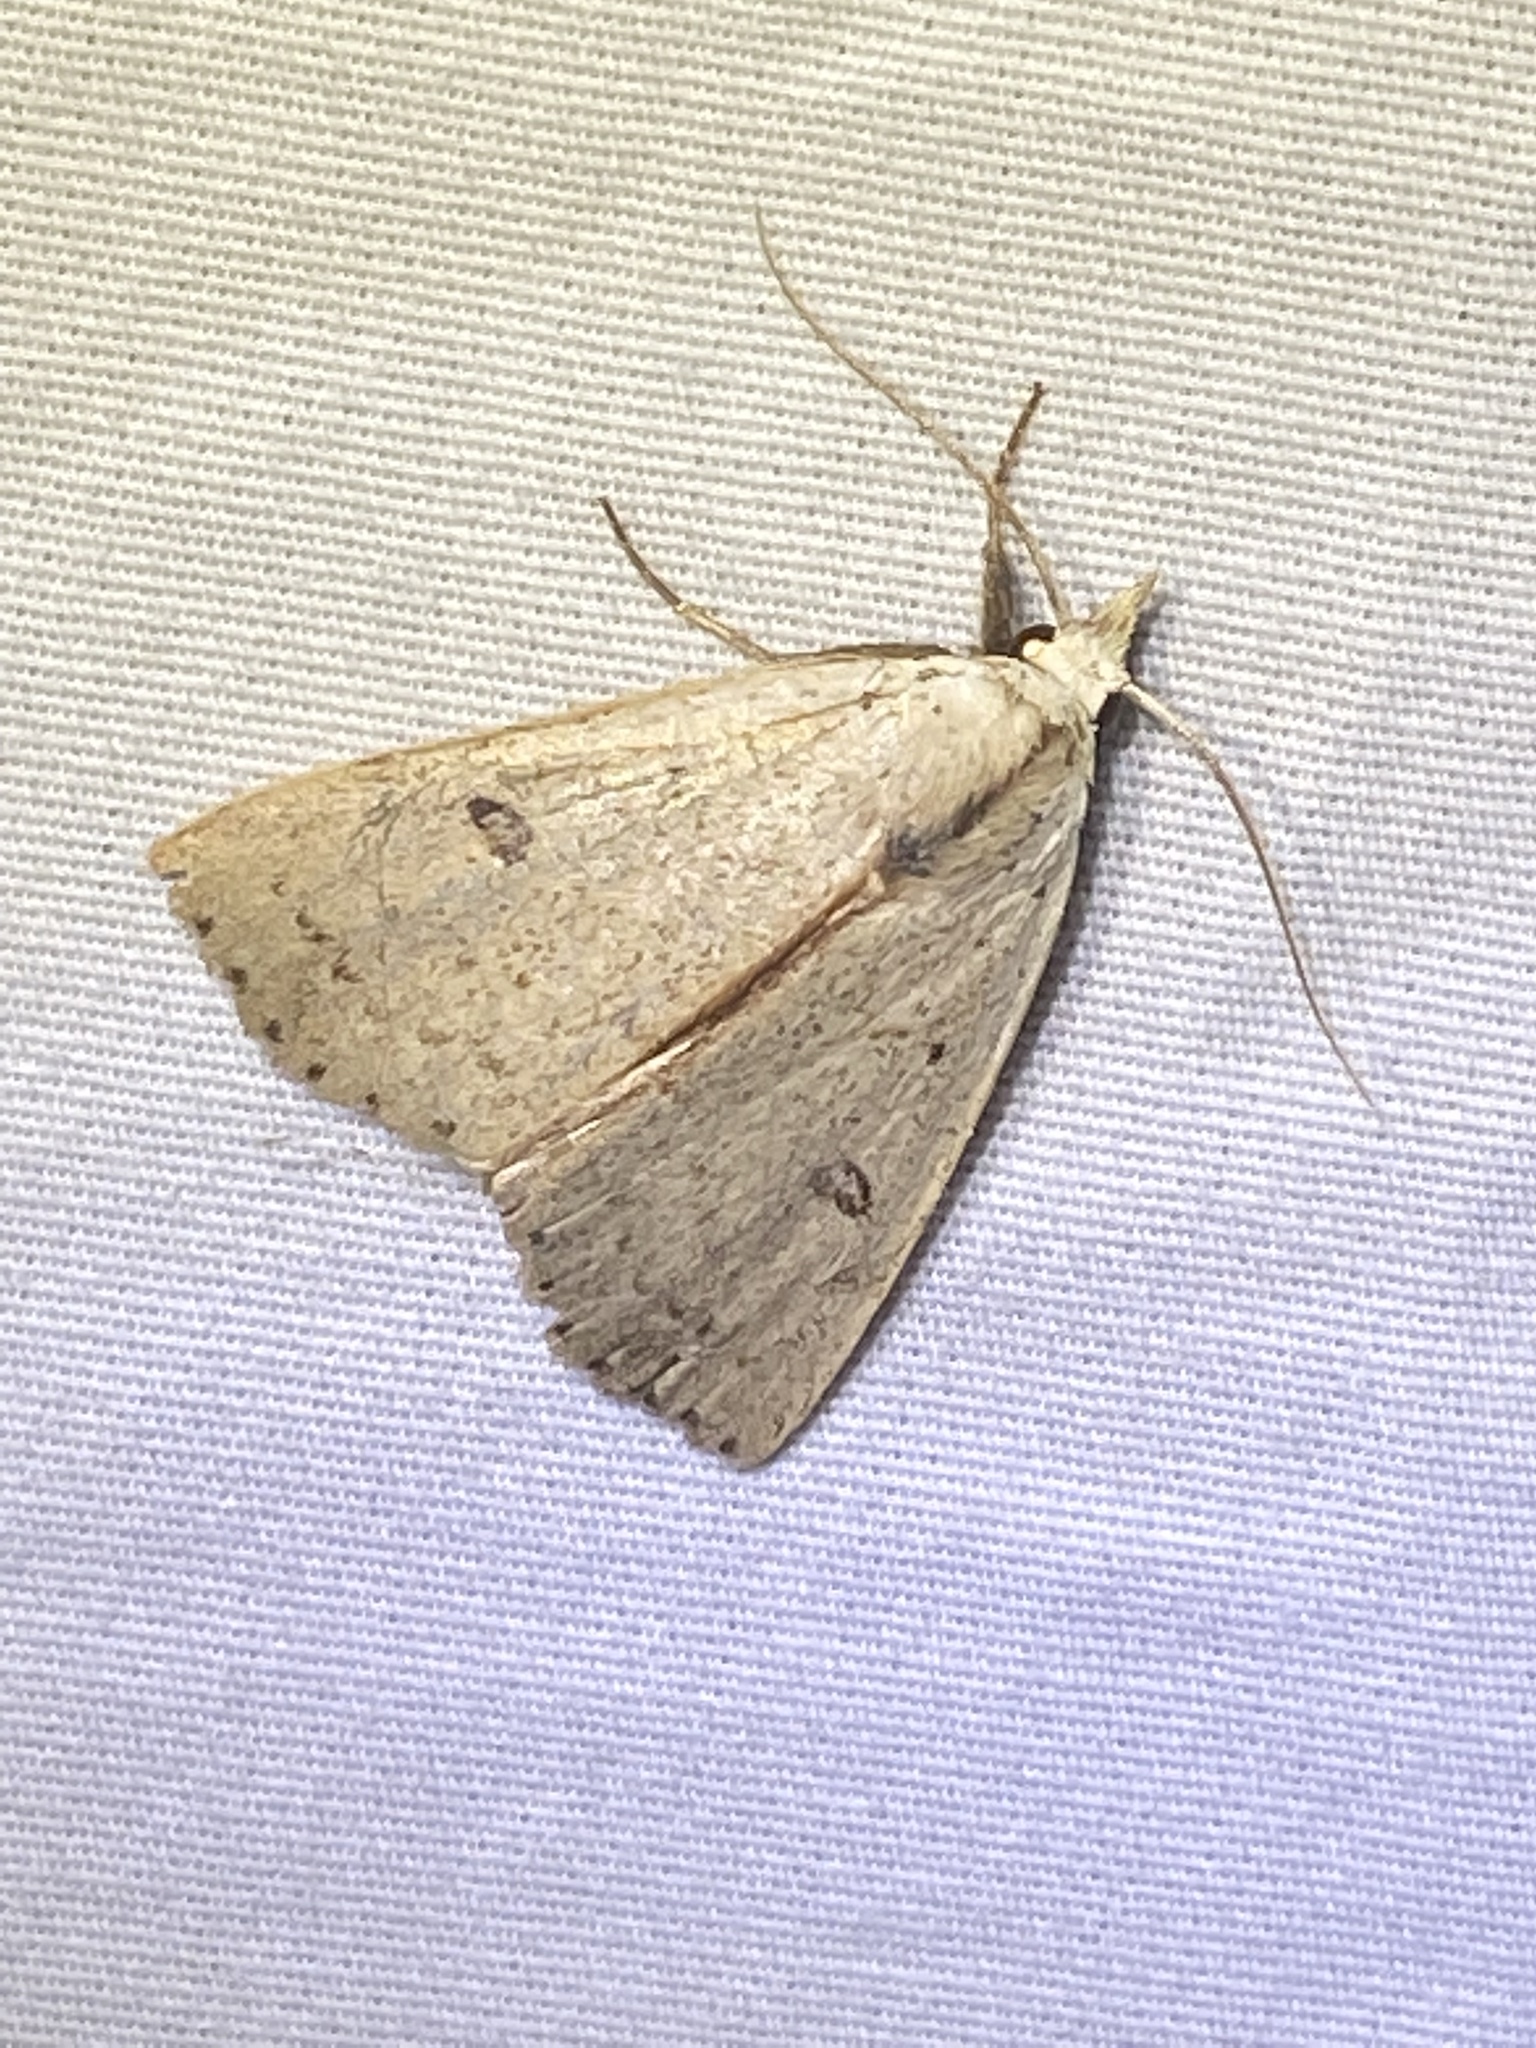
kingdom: Animalia
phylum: Arthropoda
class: Insecta
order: Lepidoptera
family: Erebidae
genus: Scolecocampa
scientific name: Scolecocampa liburna
